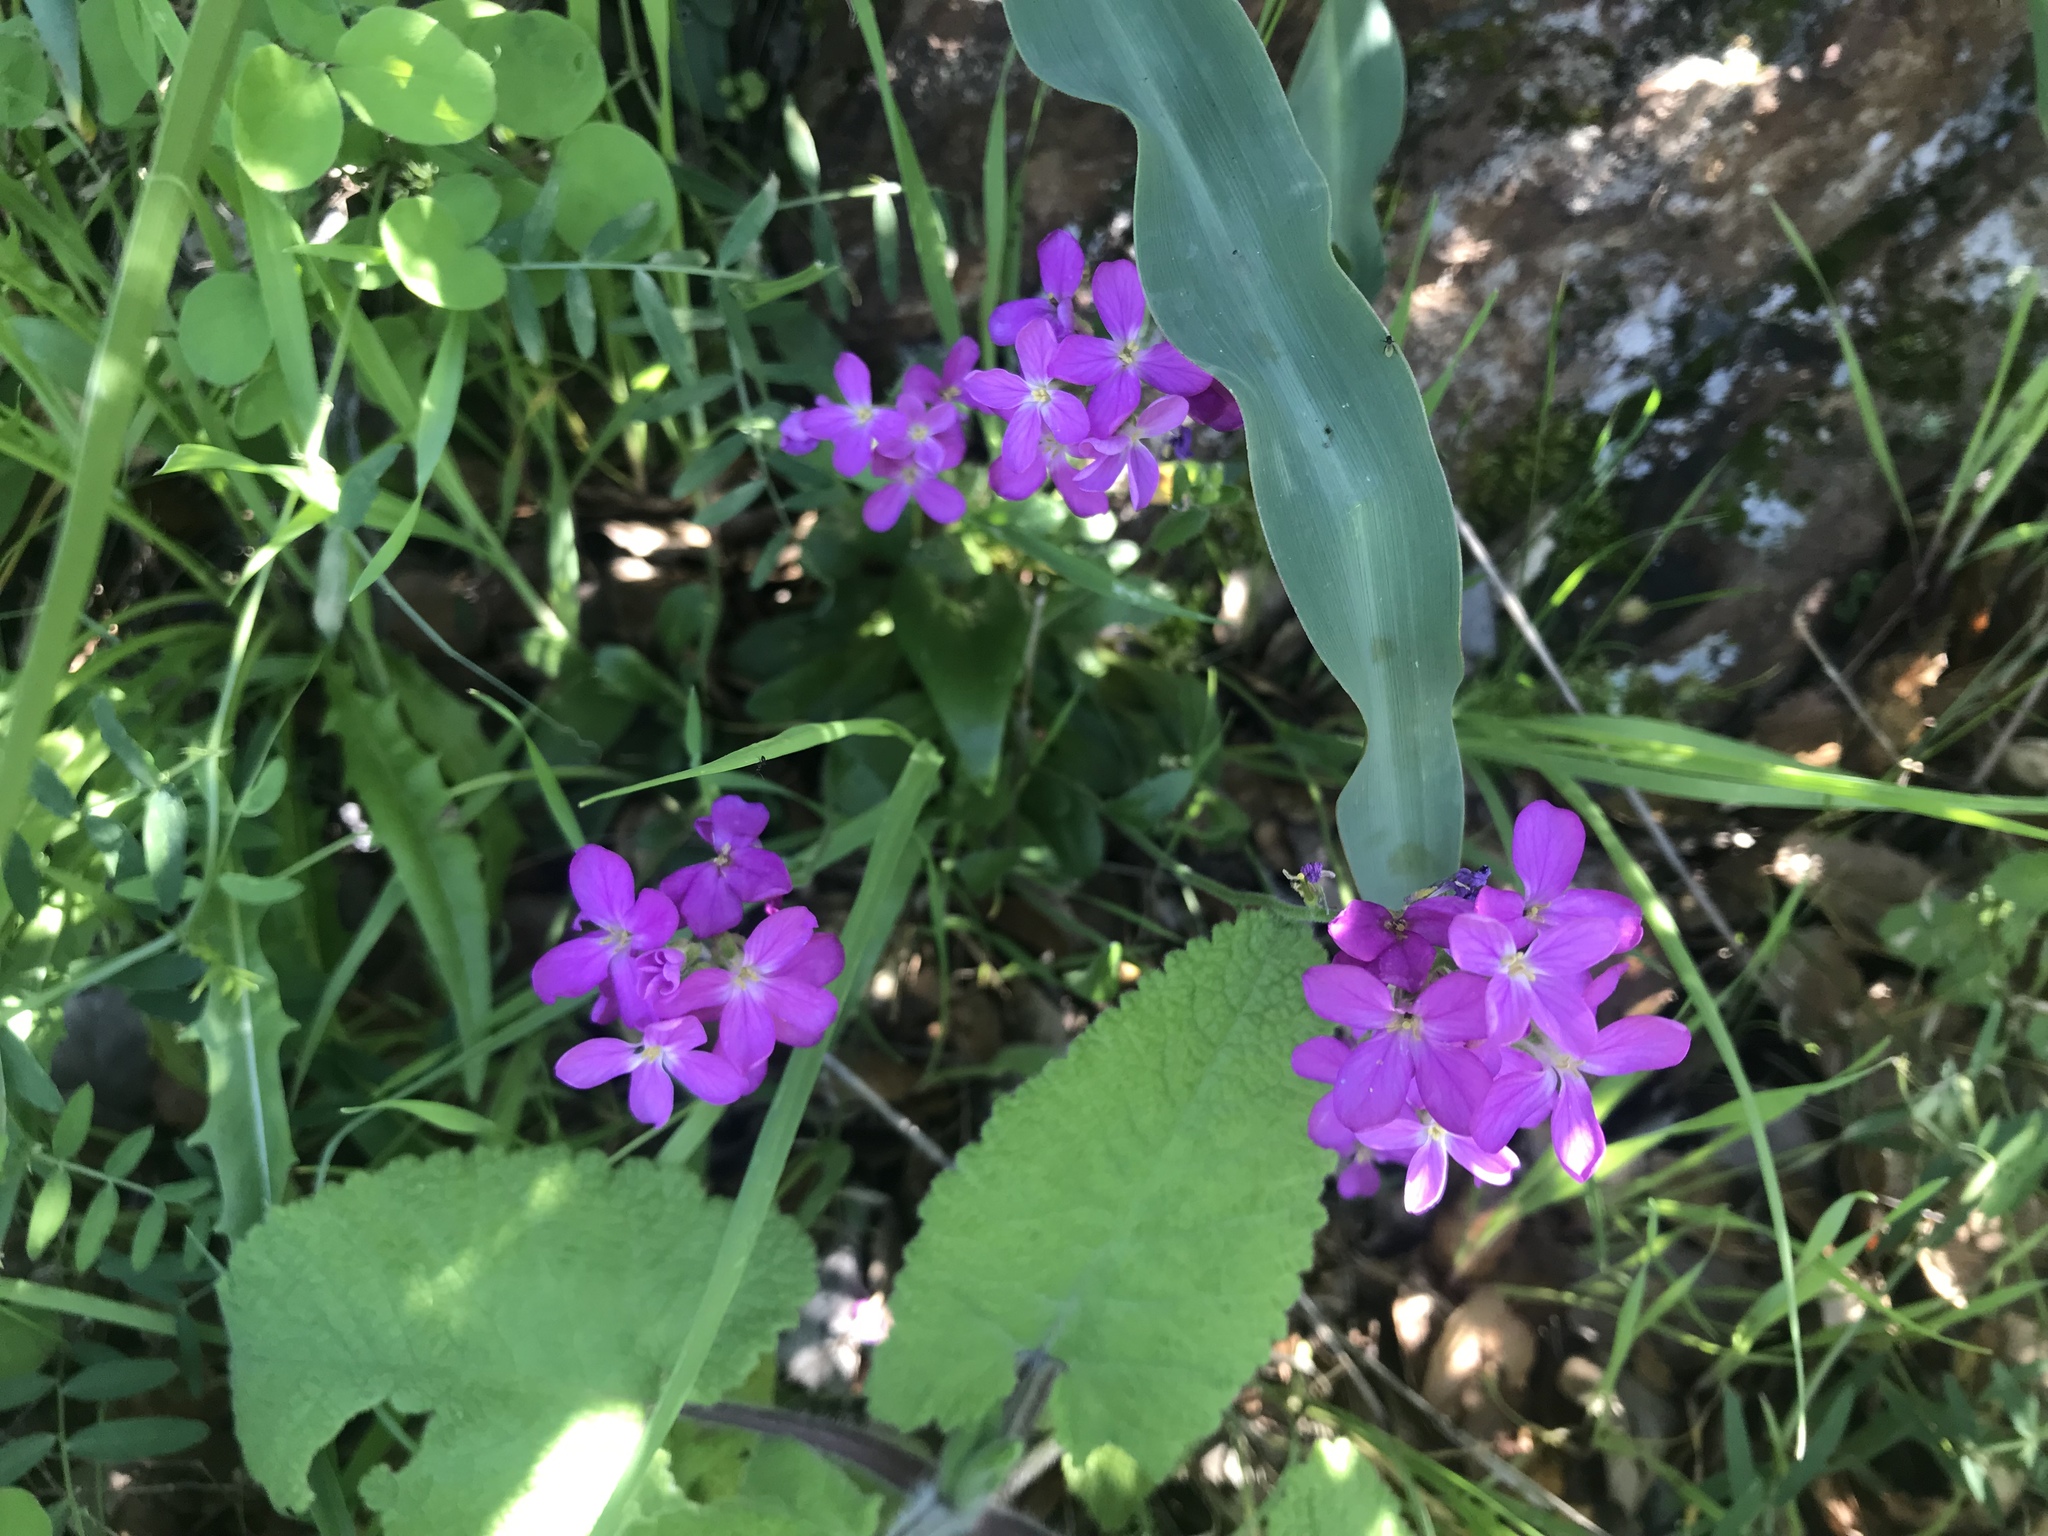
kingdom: Plantae
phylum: Tracheophyta
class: Magnoliopsida
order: Brassicales
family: Brassicaceae
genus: Arabis
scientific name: Arabis blepharophylla
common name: Rose rockcress
